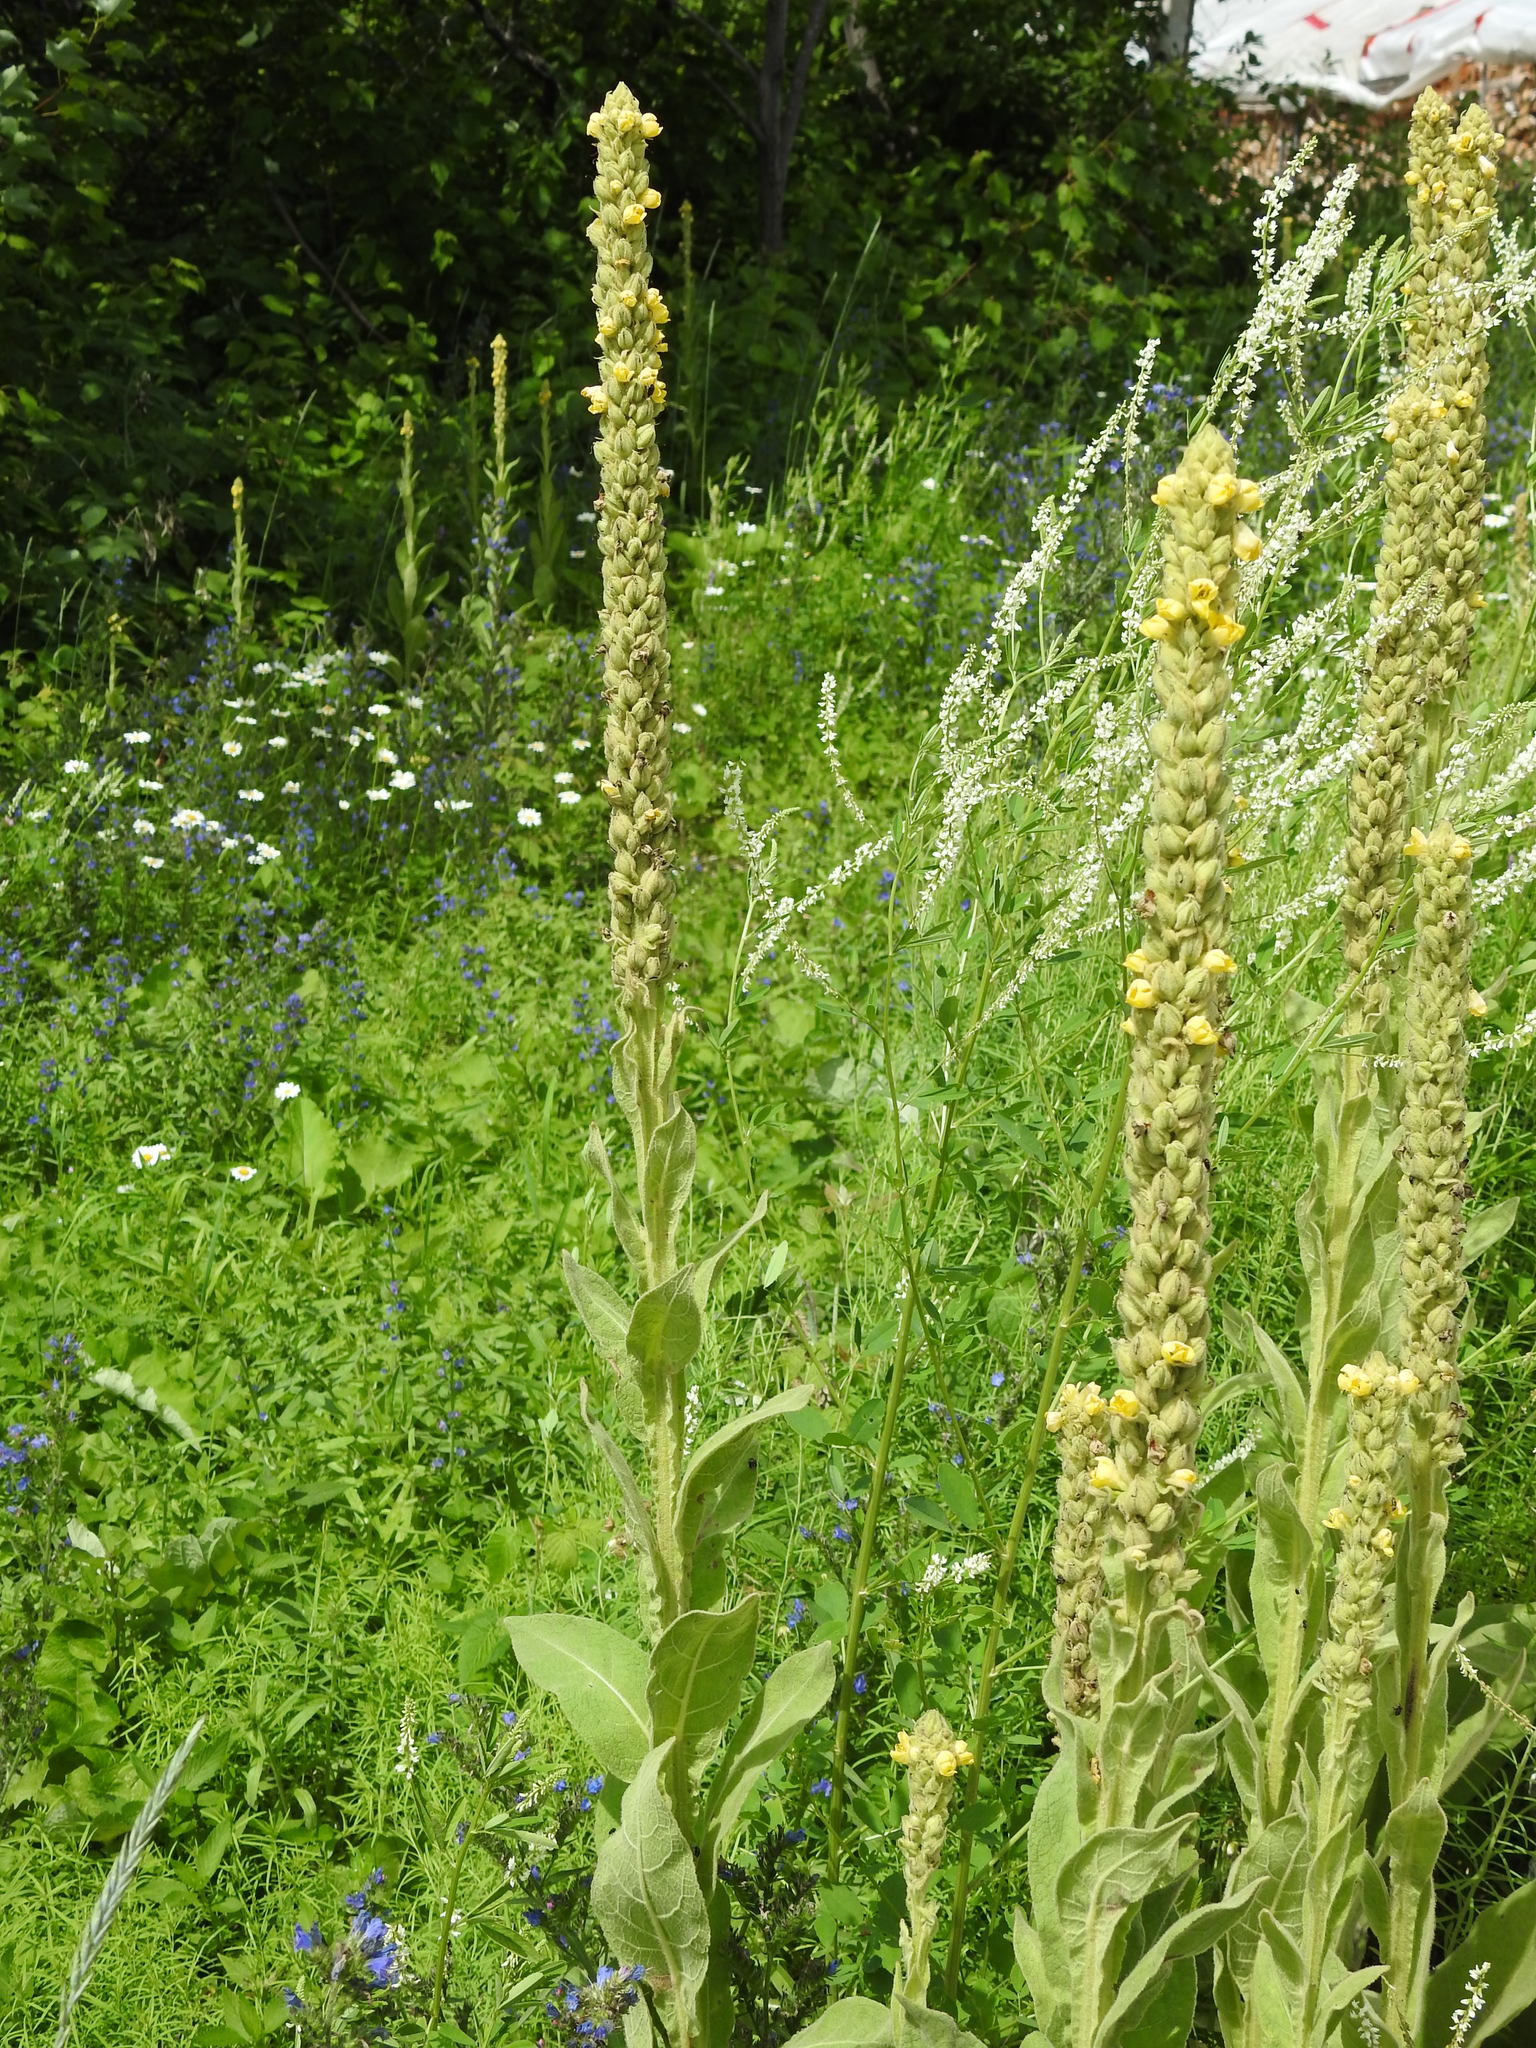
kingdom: Plantae
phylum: Tracheophyta
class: Magnoliopsida
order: Lamiales
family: Scrophulariaceae
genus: Verbascum
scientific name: Verbascum thapsus
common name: Common mullein
